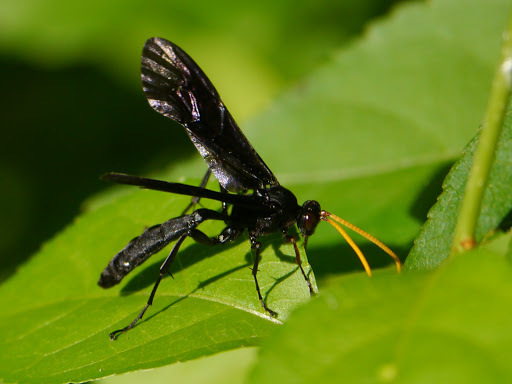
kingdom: Animalia
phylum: Arthropoda
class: Insecta
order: Hymenoptera
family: Ichneumonidae
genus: Gnamptopelta
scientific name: Gnamptopelta obsidianator
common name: Bent-shielded besieger wasp
